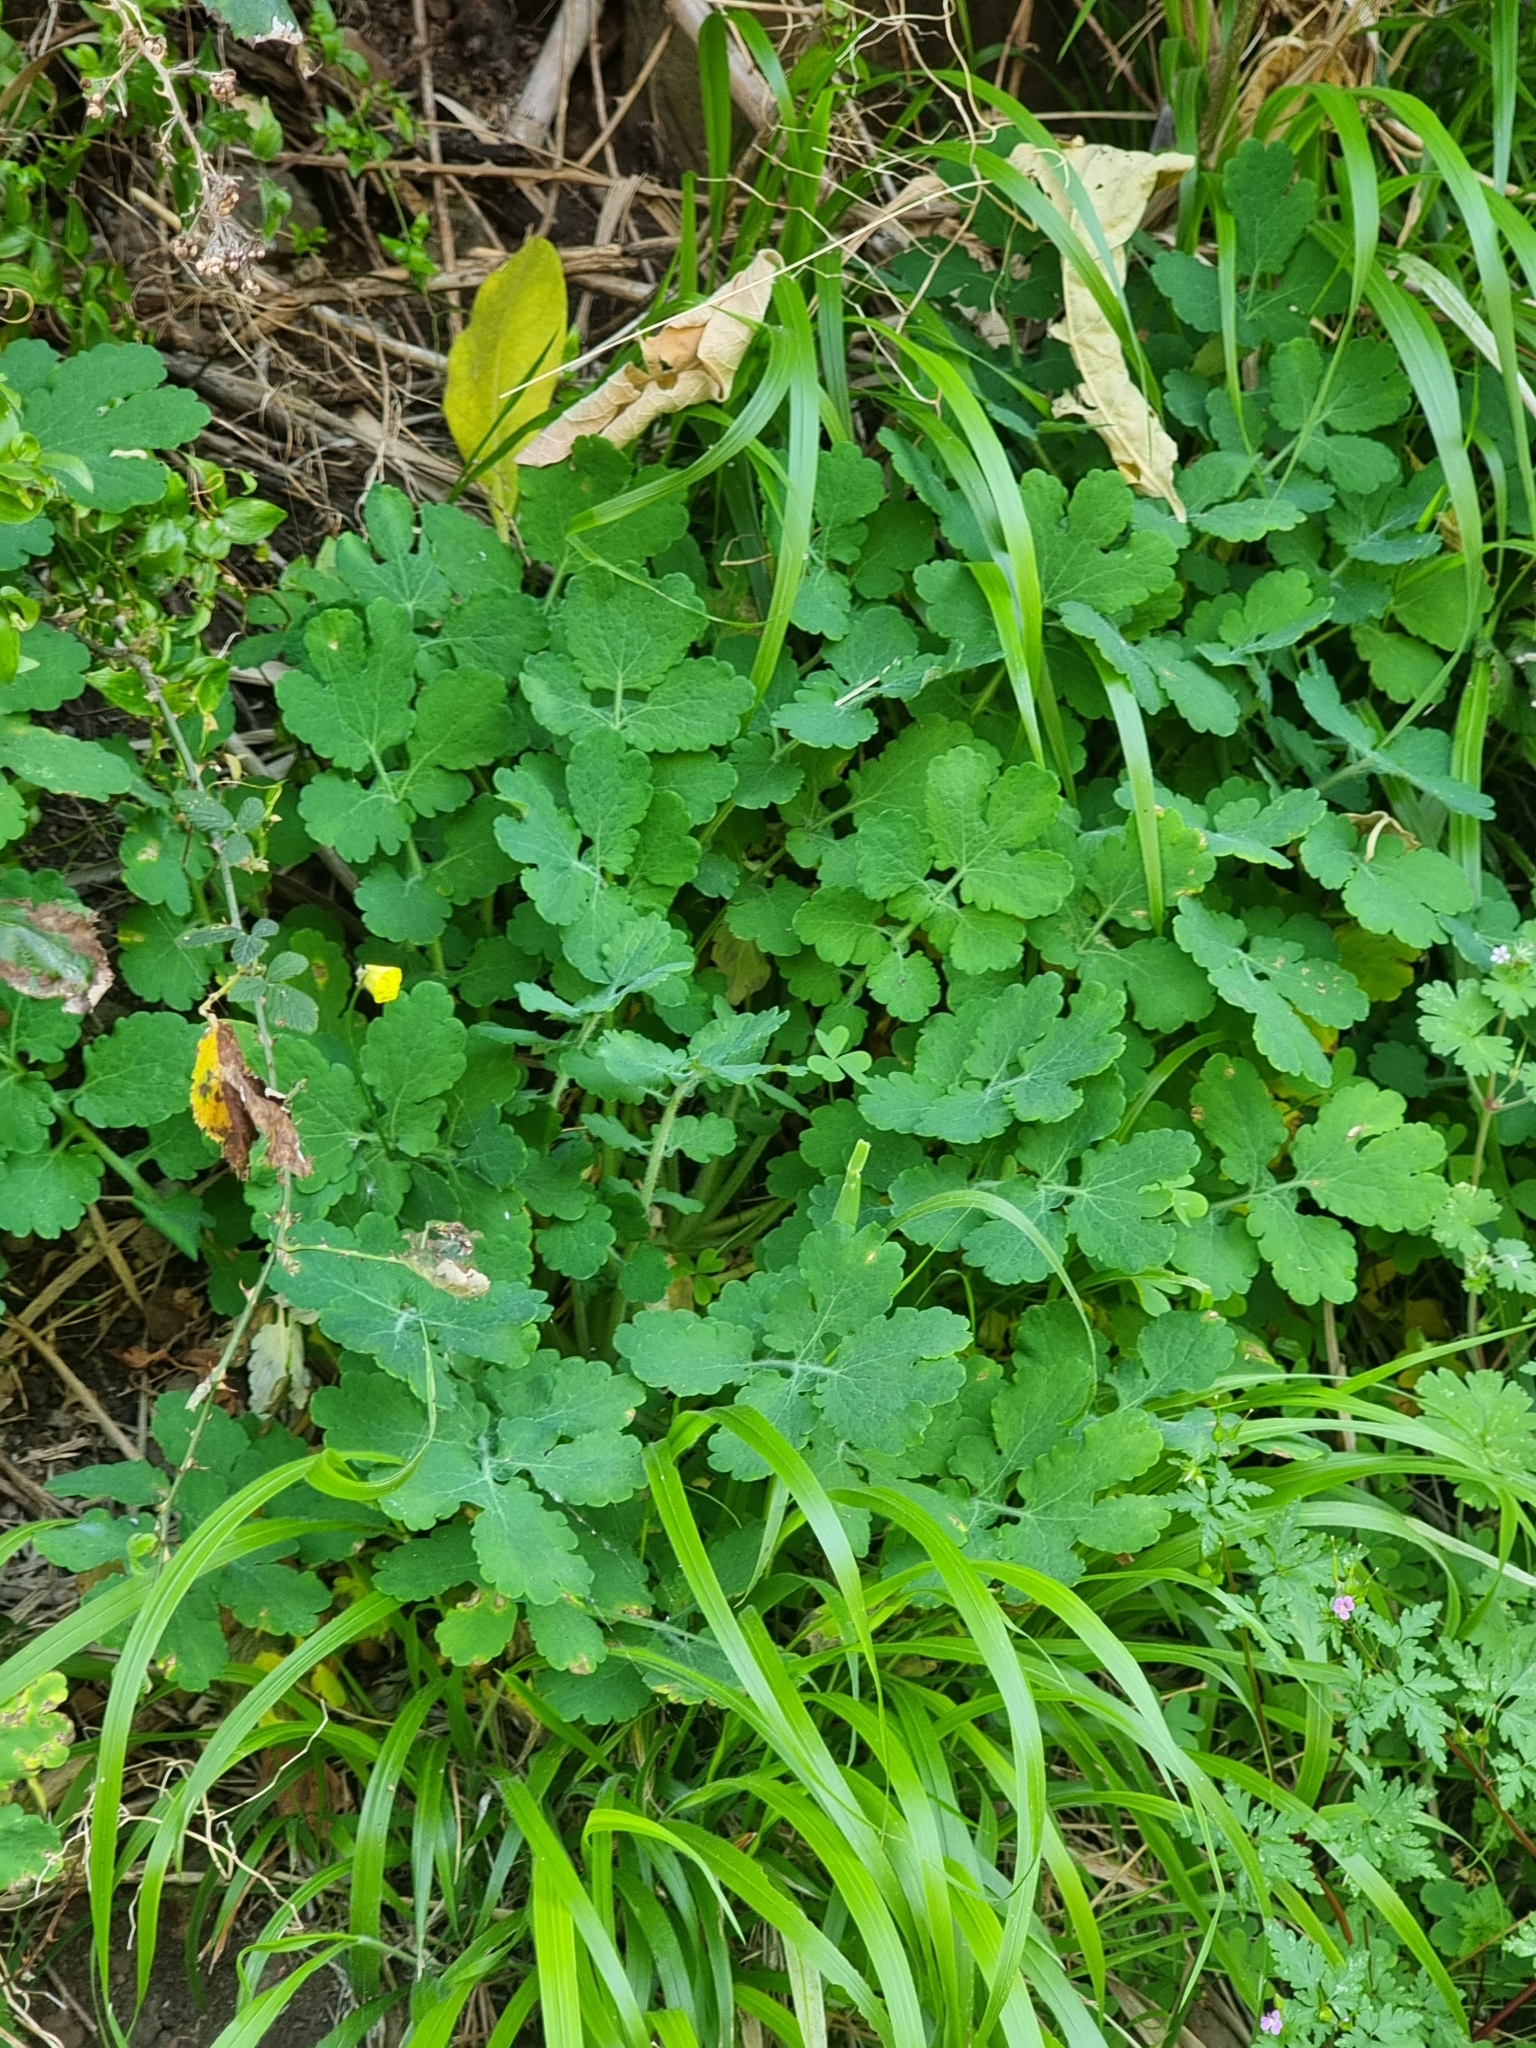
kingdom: Plantae
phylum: Tracheophyta
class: Magnoliopsida
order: Ranunculales
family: Papaveraceae
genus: Chelidonium
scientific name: Chelidonium majus
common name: Greater celandine
